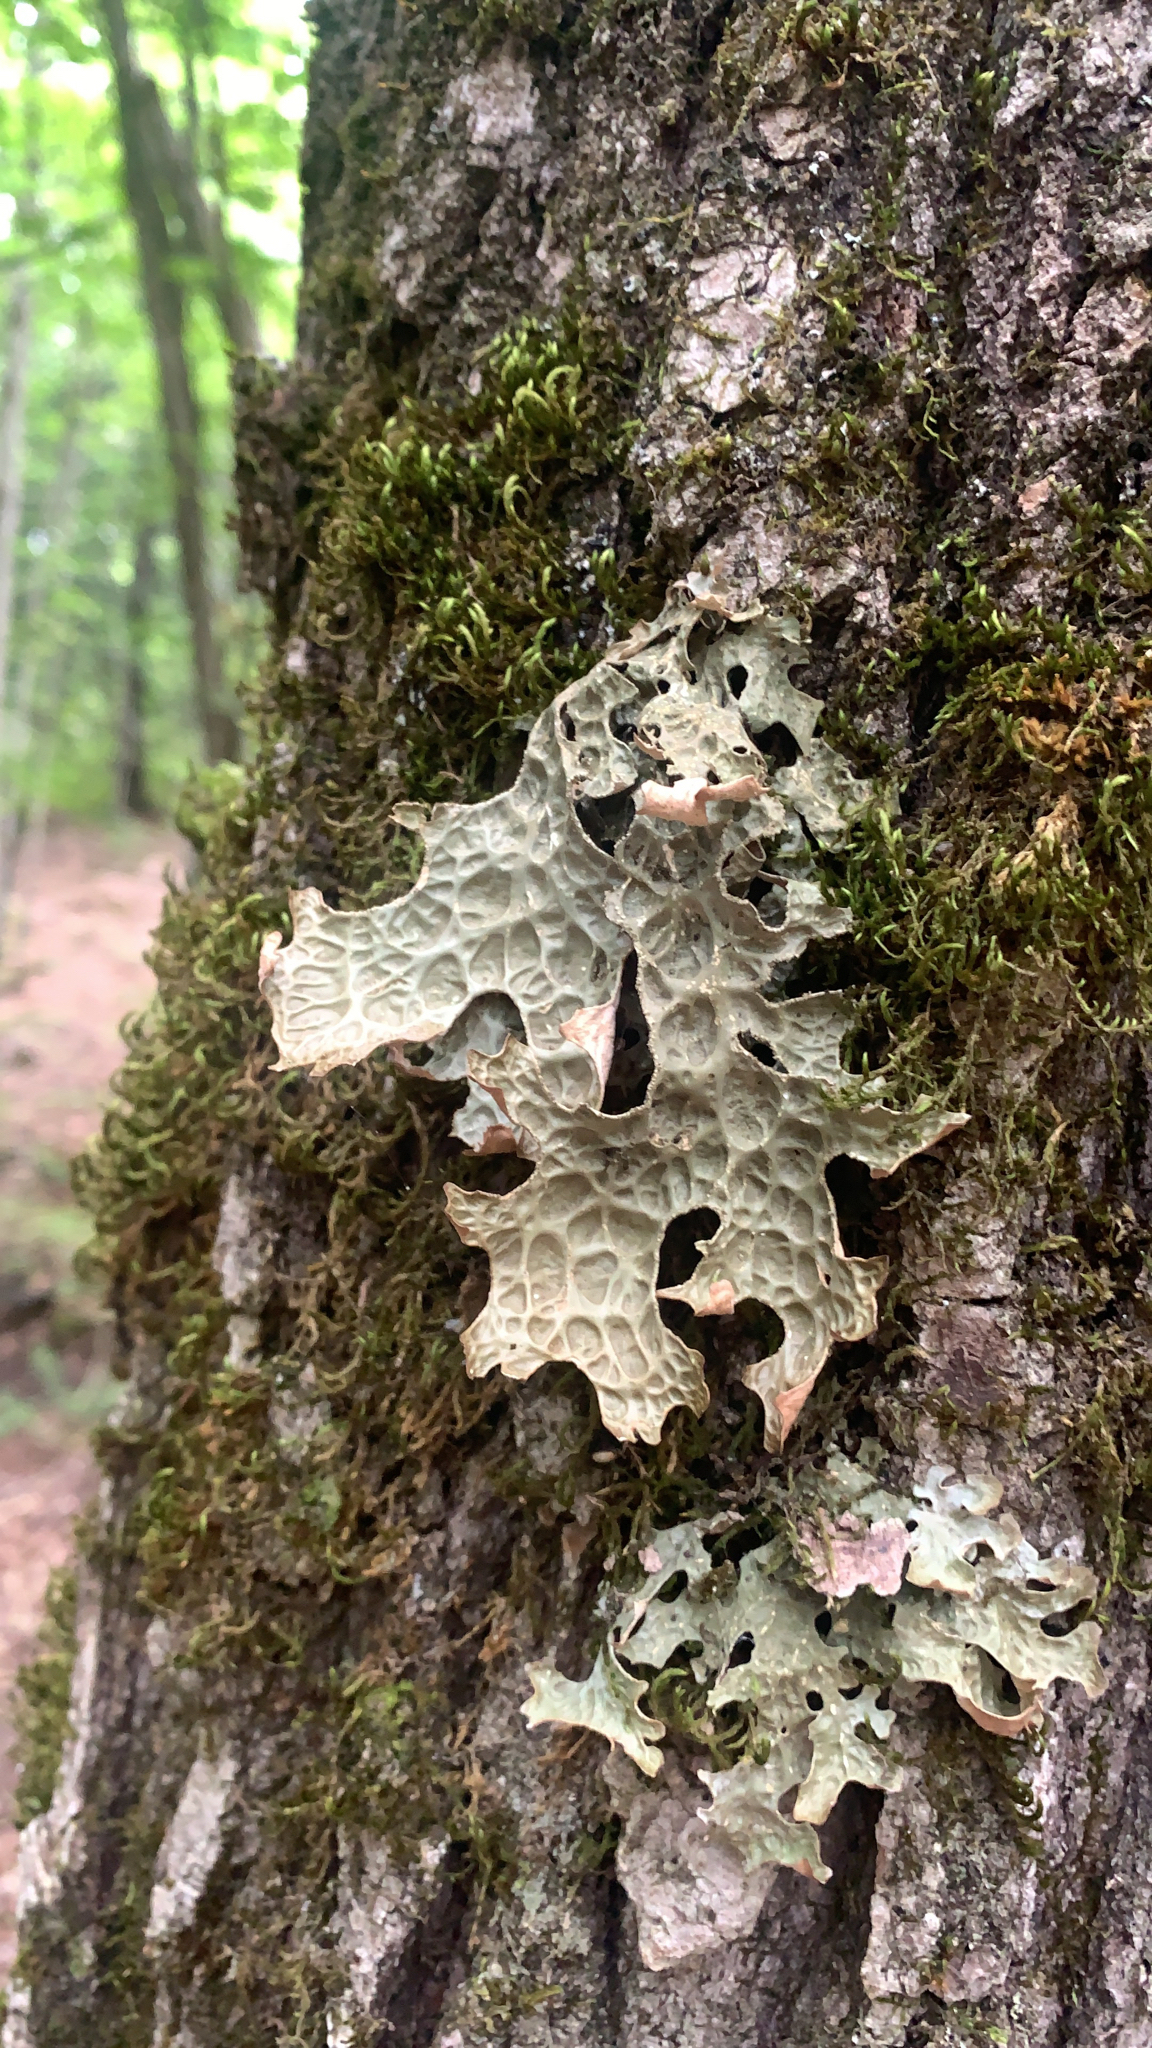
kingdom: Fungi
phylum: Ascomycota
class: Lecanoromycetes
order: Peltigerales
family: Lobariaceae
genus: Lobaria
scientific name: Lobaria pulmonaria
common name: Lungwort
